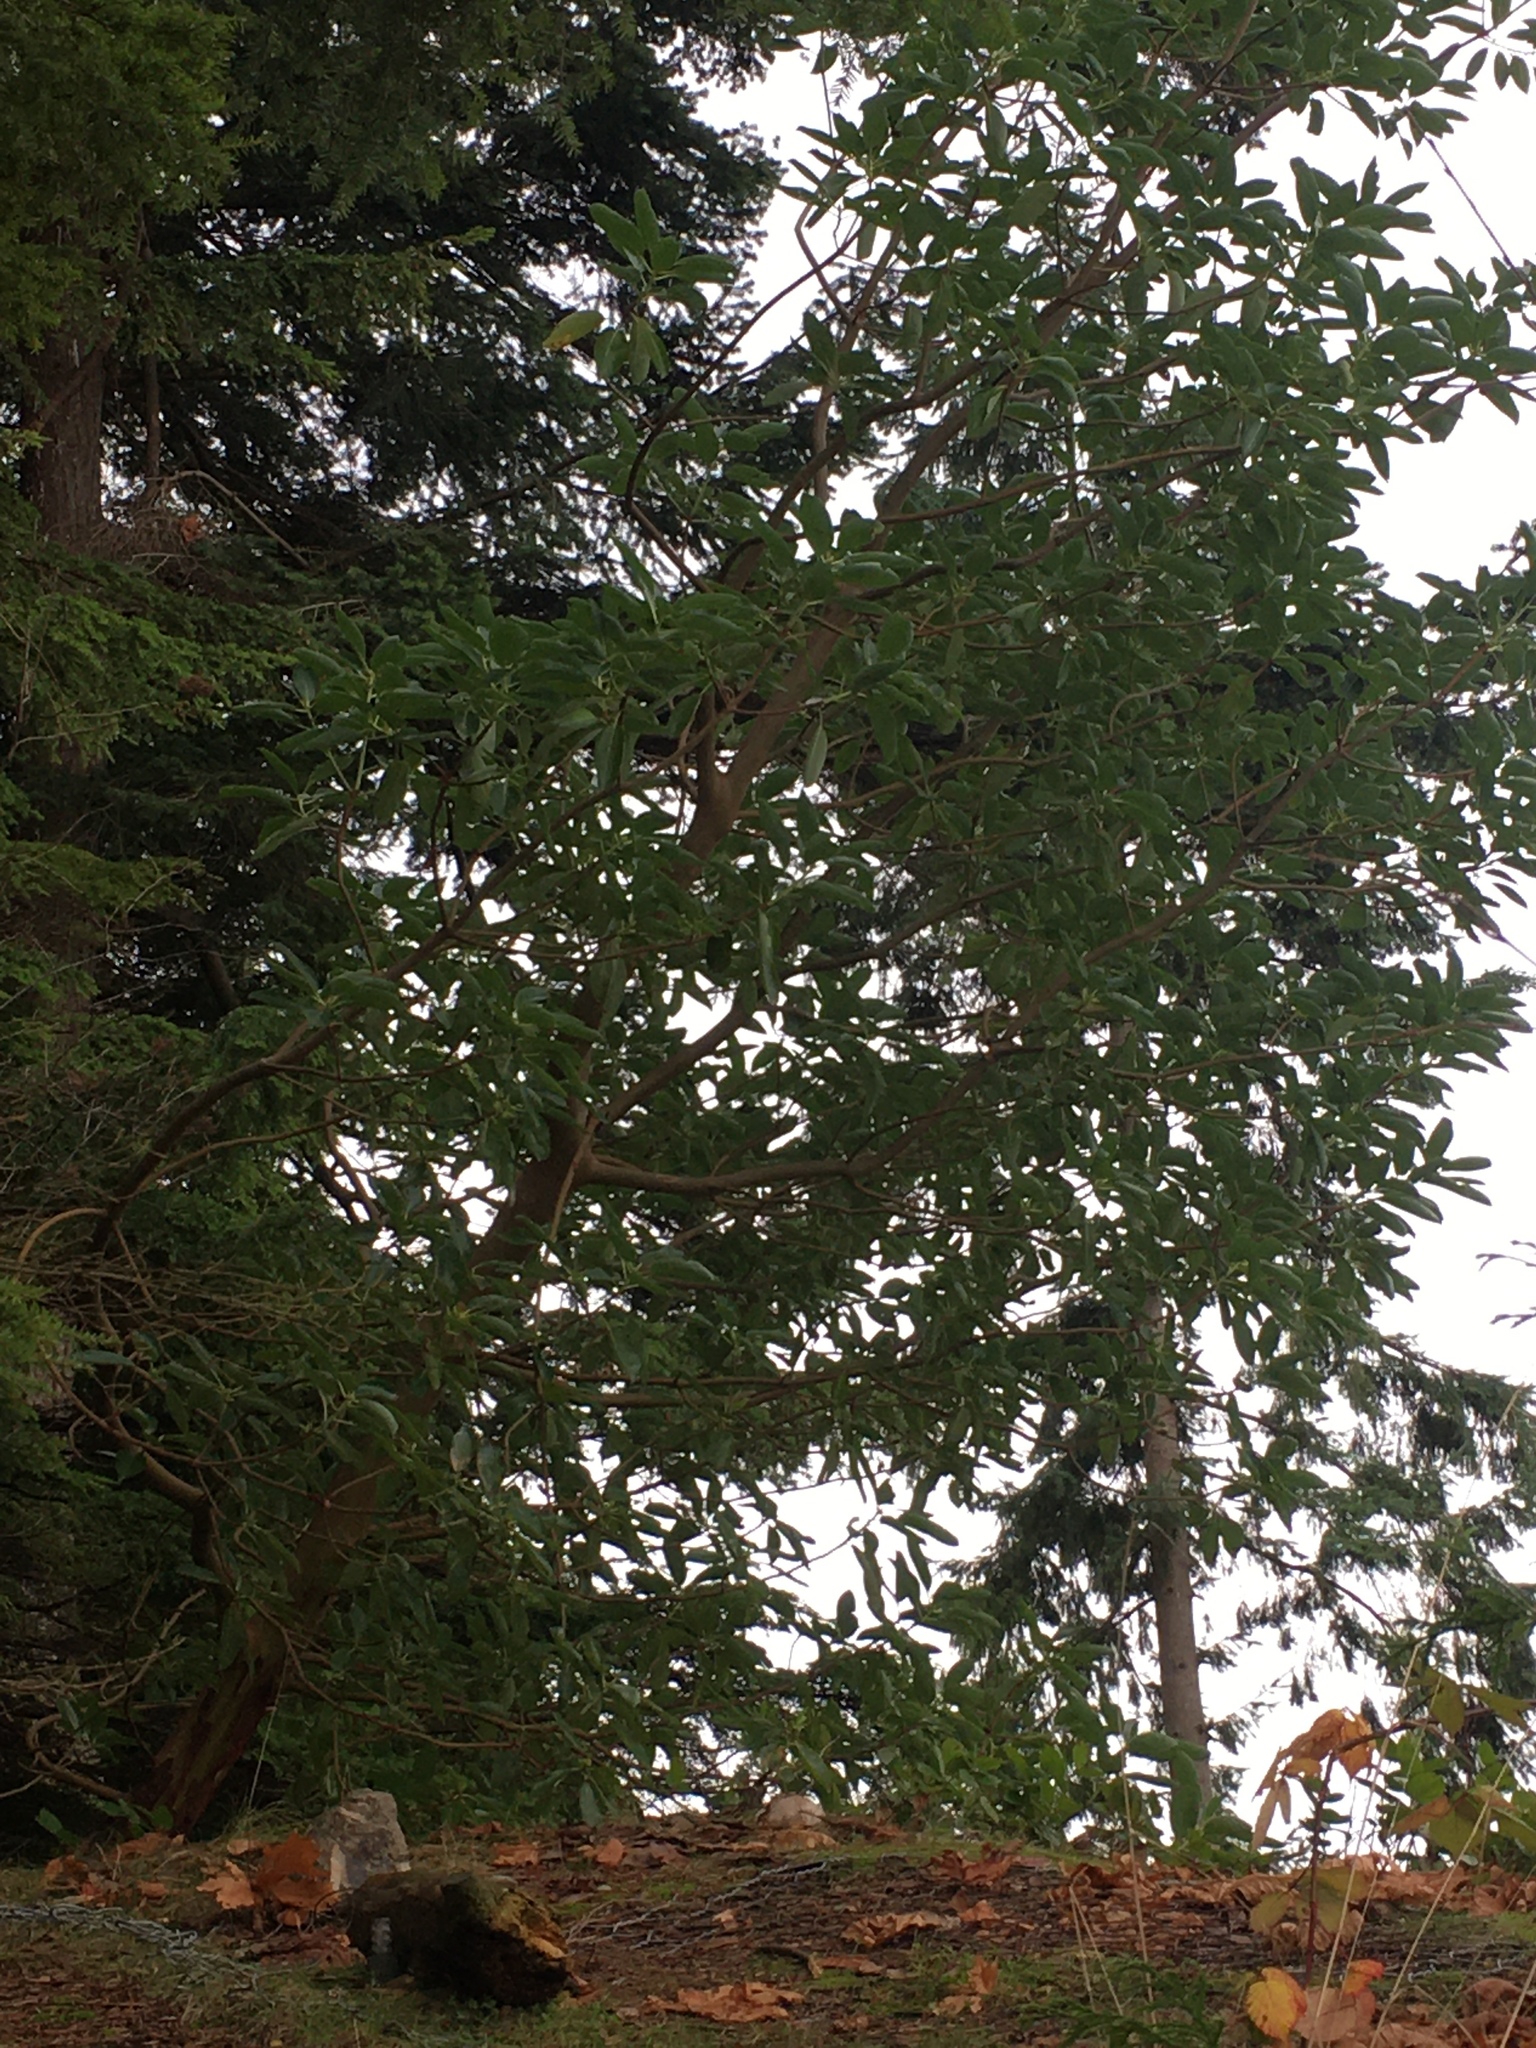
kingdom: Plantae
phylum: Tracheophyta
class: Magnoliopsida
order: Ericales
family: Ericaceae
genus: Arbutus
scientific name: Arbutus menziesii
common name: Pacific madrone
